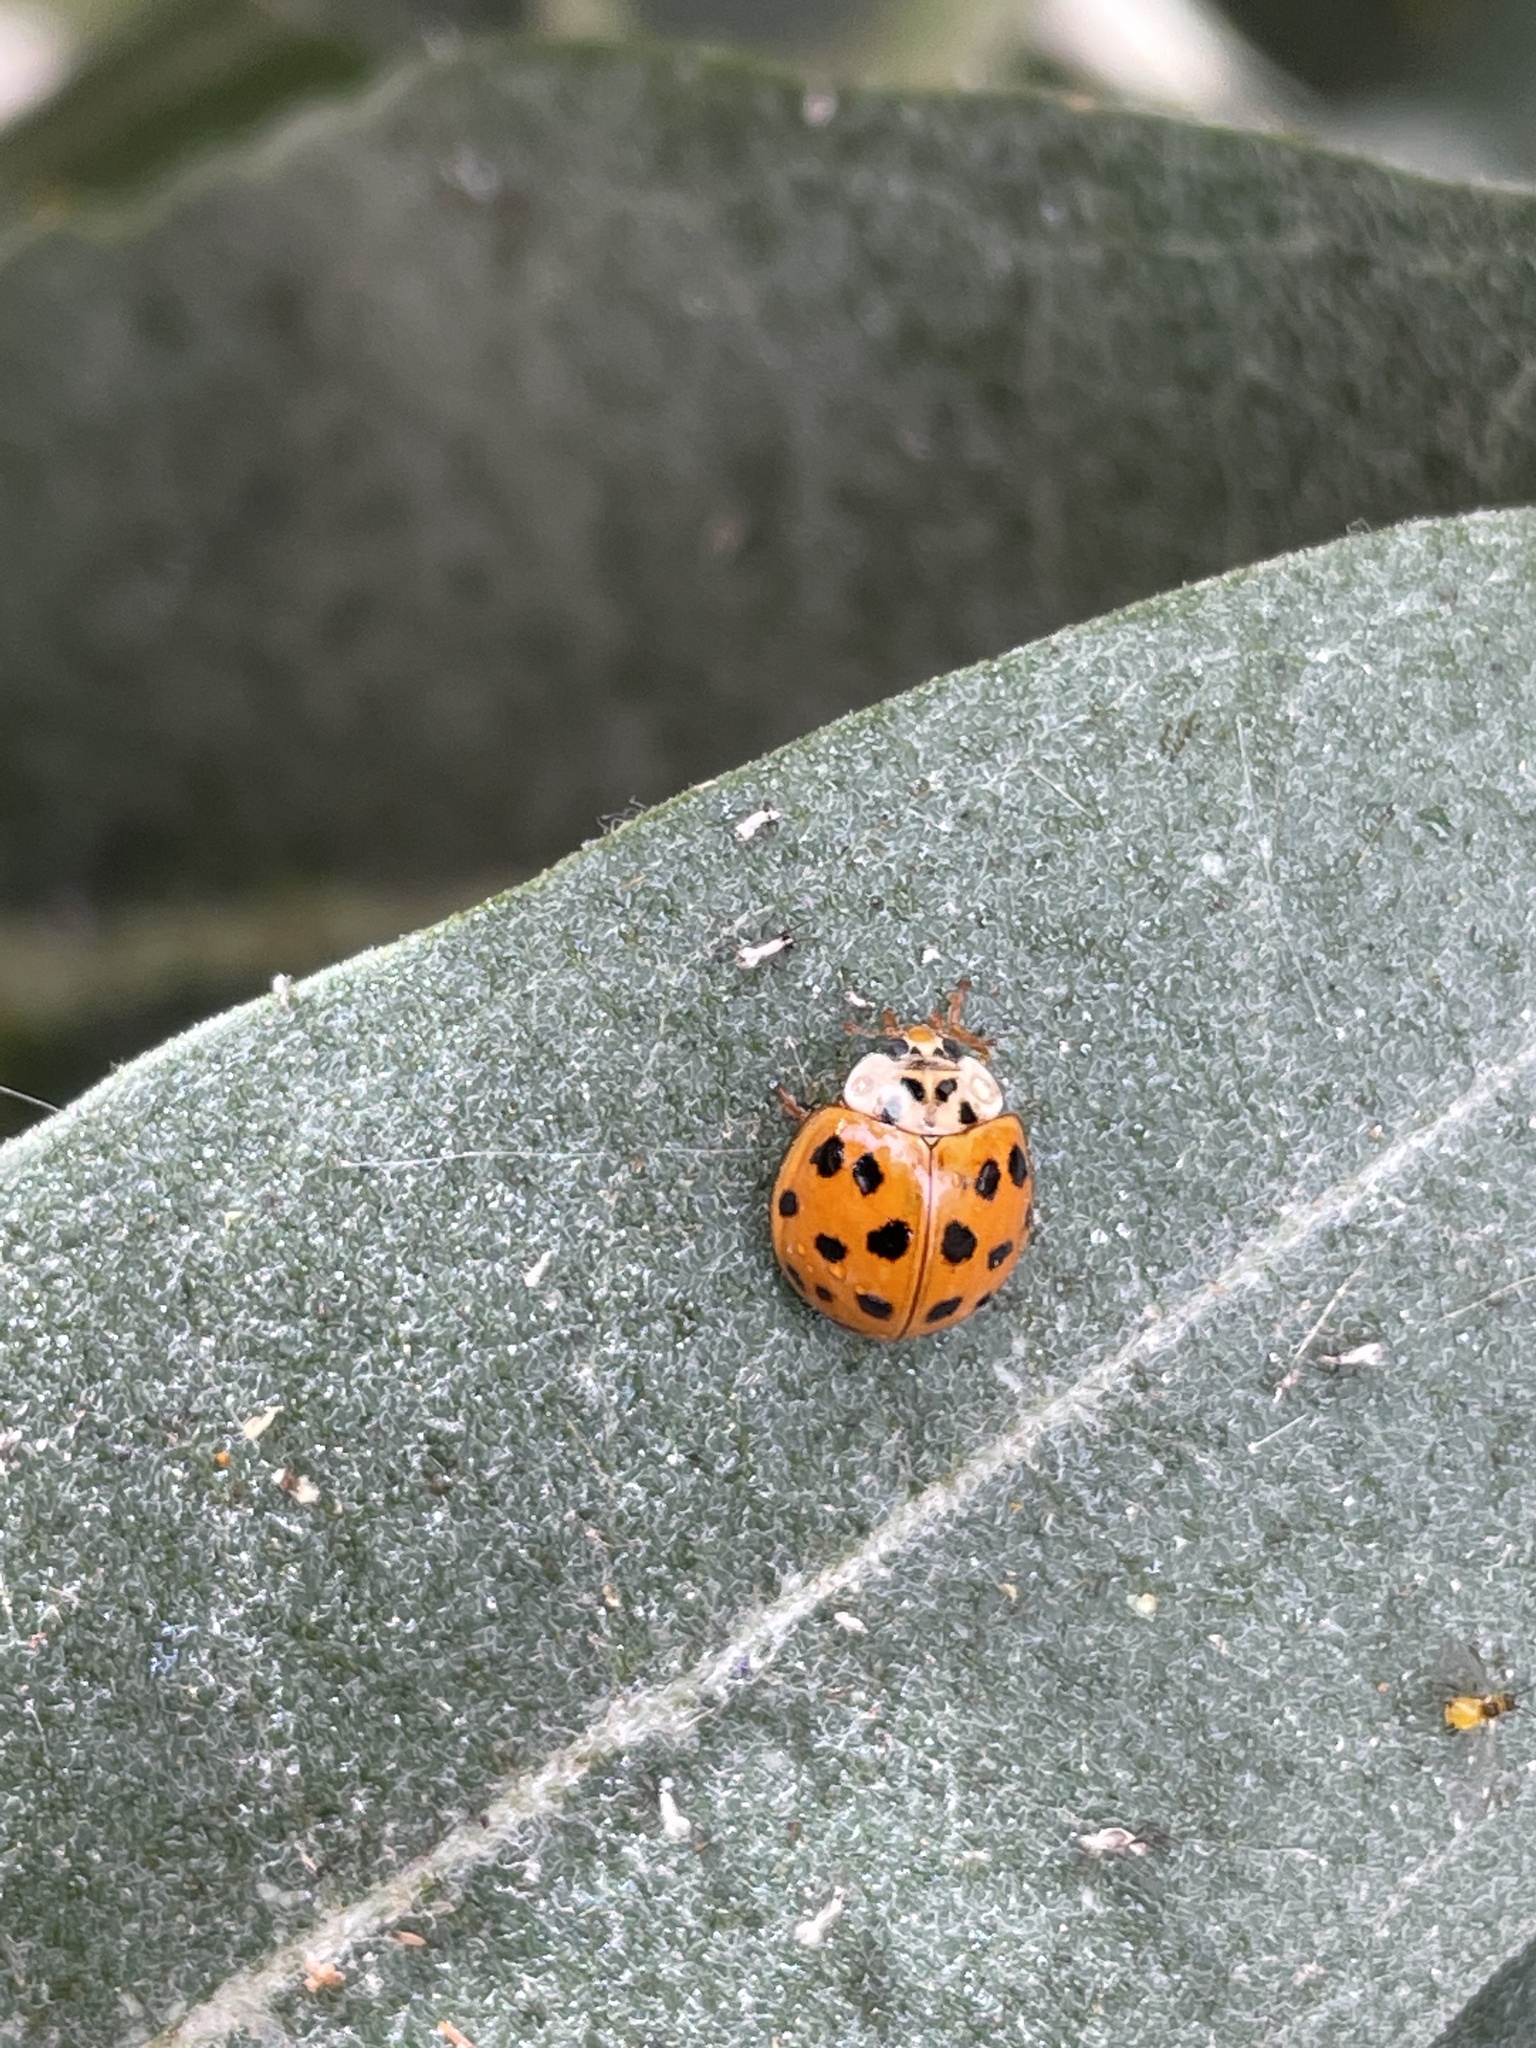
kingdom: Animalia
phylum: Arthropoda
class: Insecta
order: Coleoptera
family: Coccinellidae
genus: Harmonia
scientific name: Harmonia axyridis
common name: Harlequin ladybird
